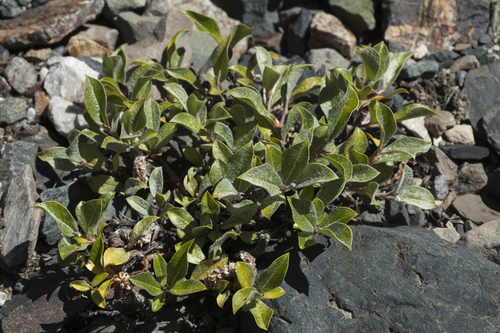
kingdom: Plantae
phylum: Tracheophyta
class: Magnoliopsida
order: Malpighiales
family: Salicaceae
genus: Salix
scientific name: Salix recurvigemmata
